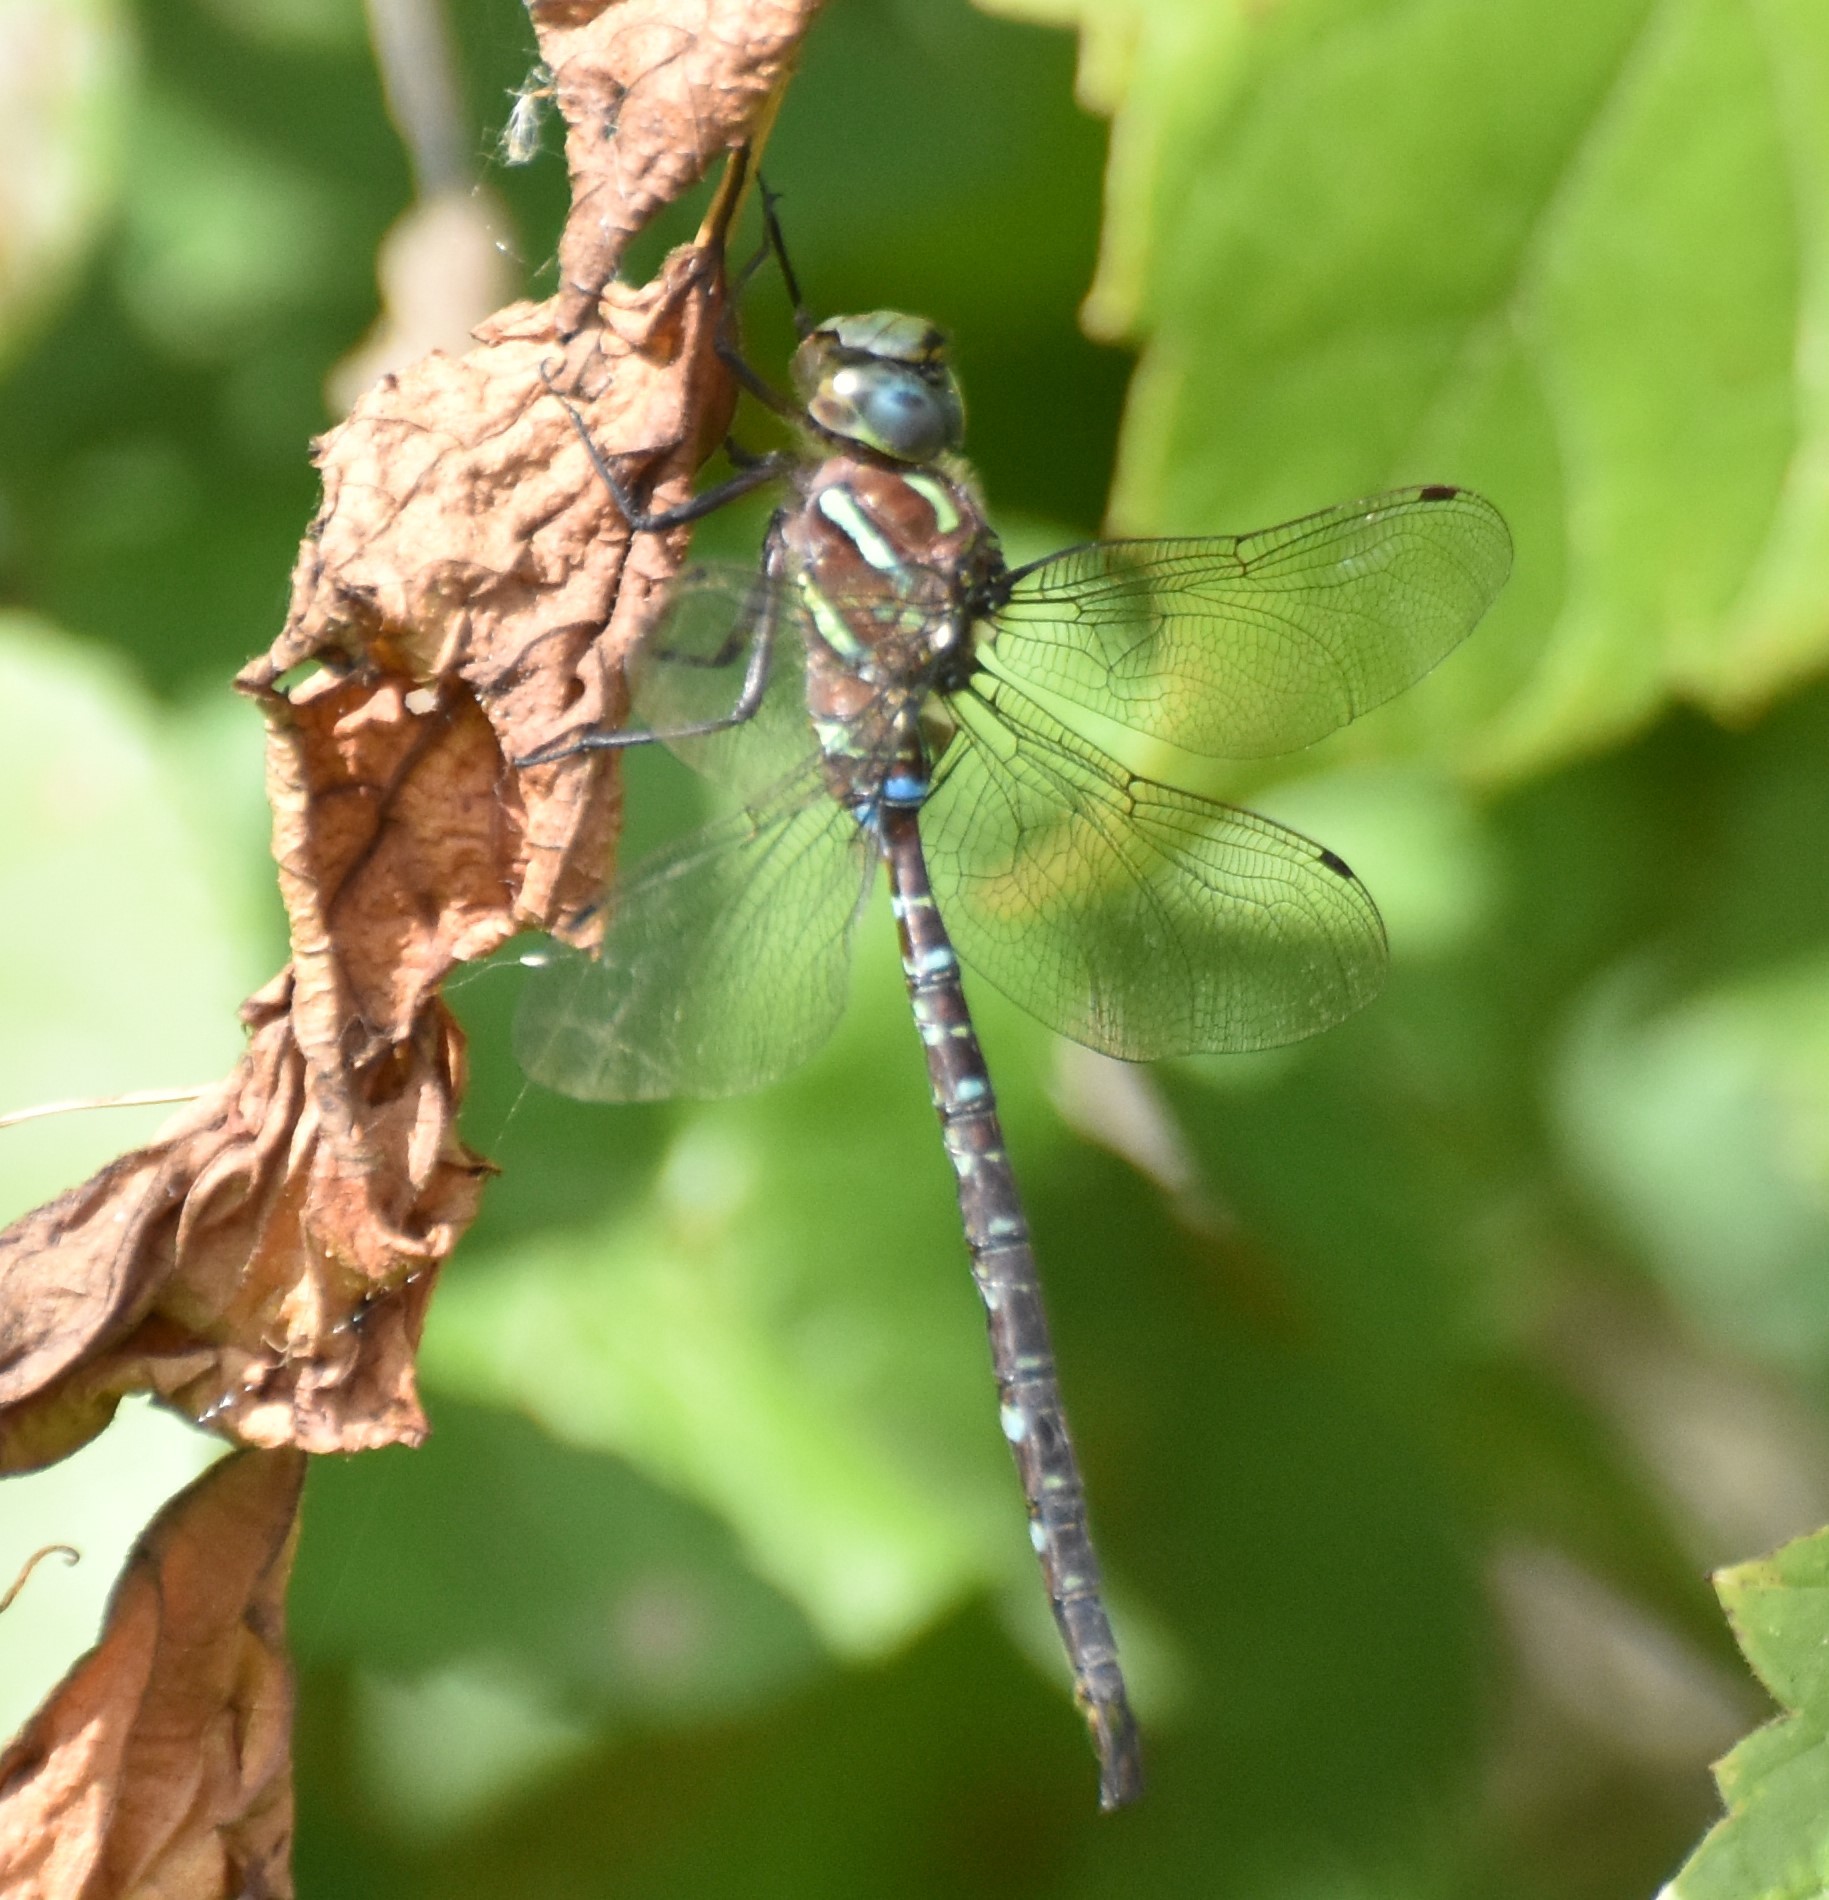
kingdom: Animalia
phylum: Arthropoda
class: Insecta
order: Odonata
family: Aeshnidae
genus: Aeshna
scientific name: Aeshna umbrosa
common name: Shadow darner
